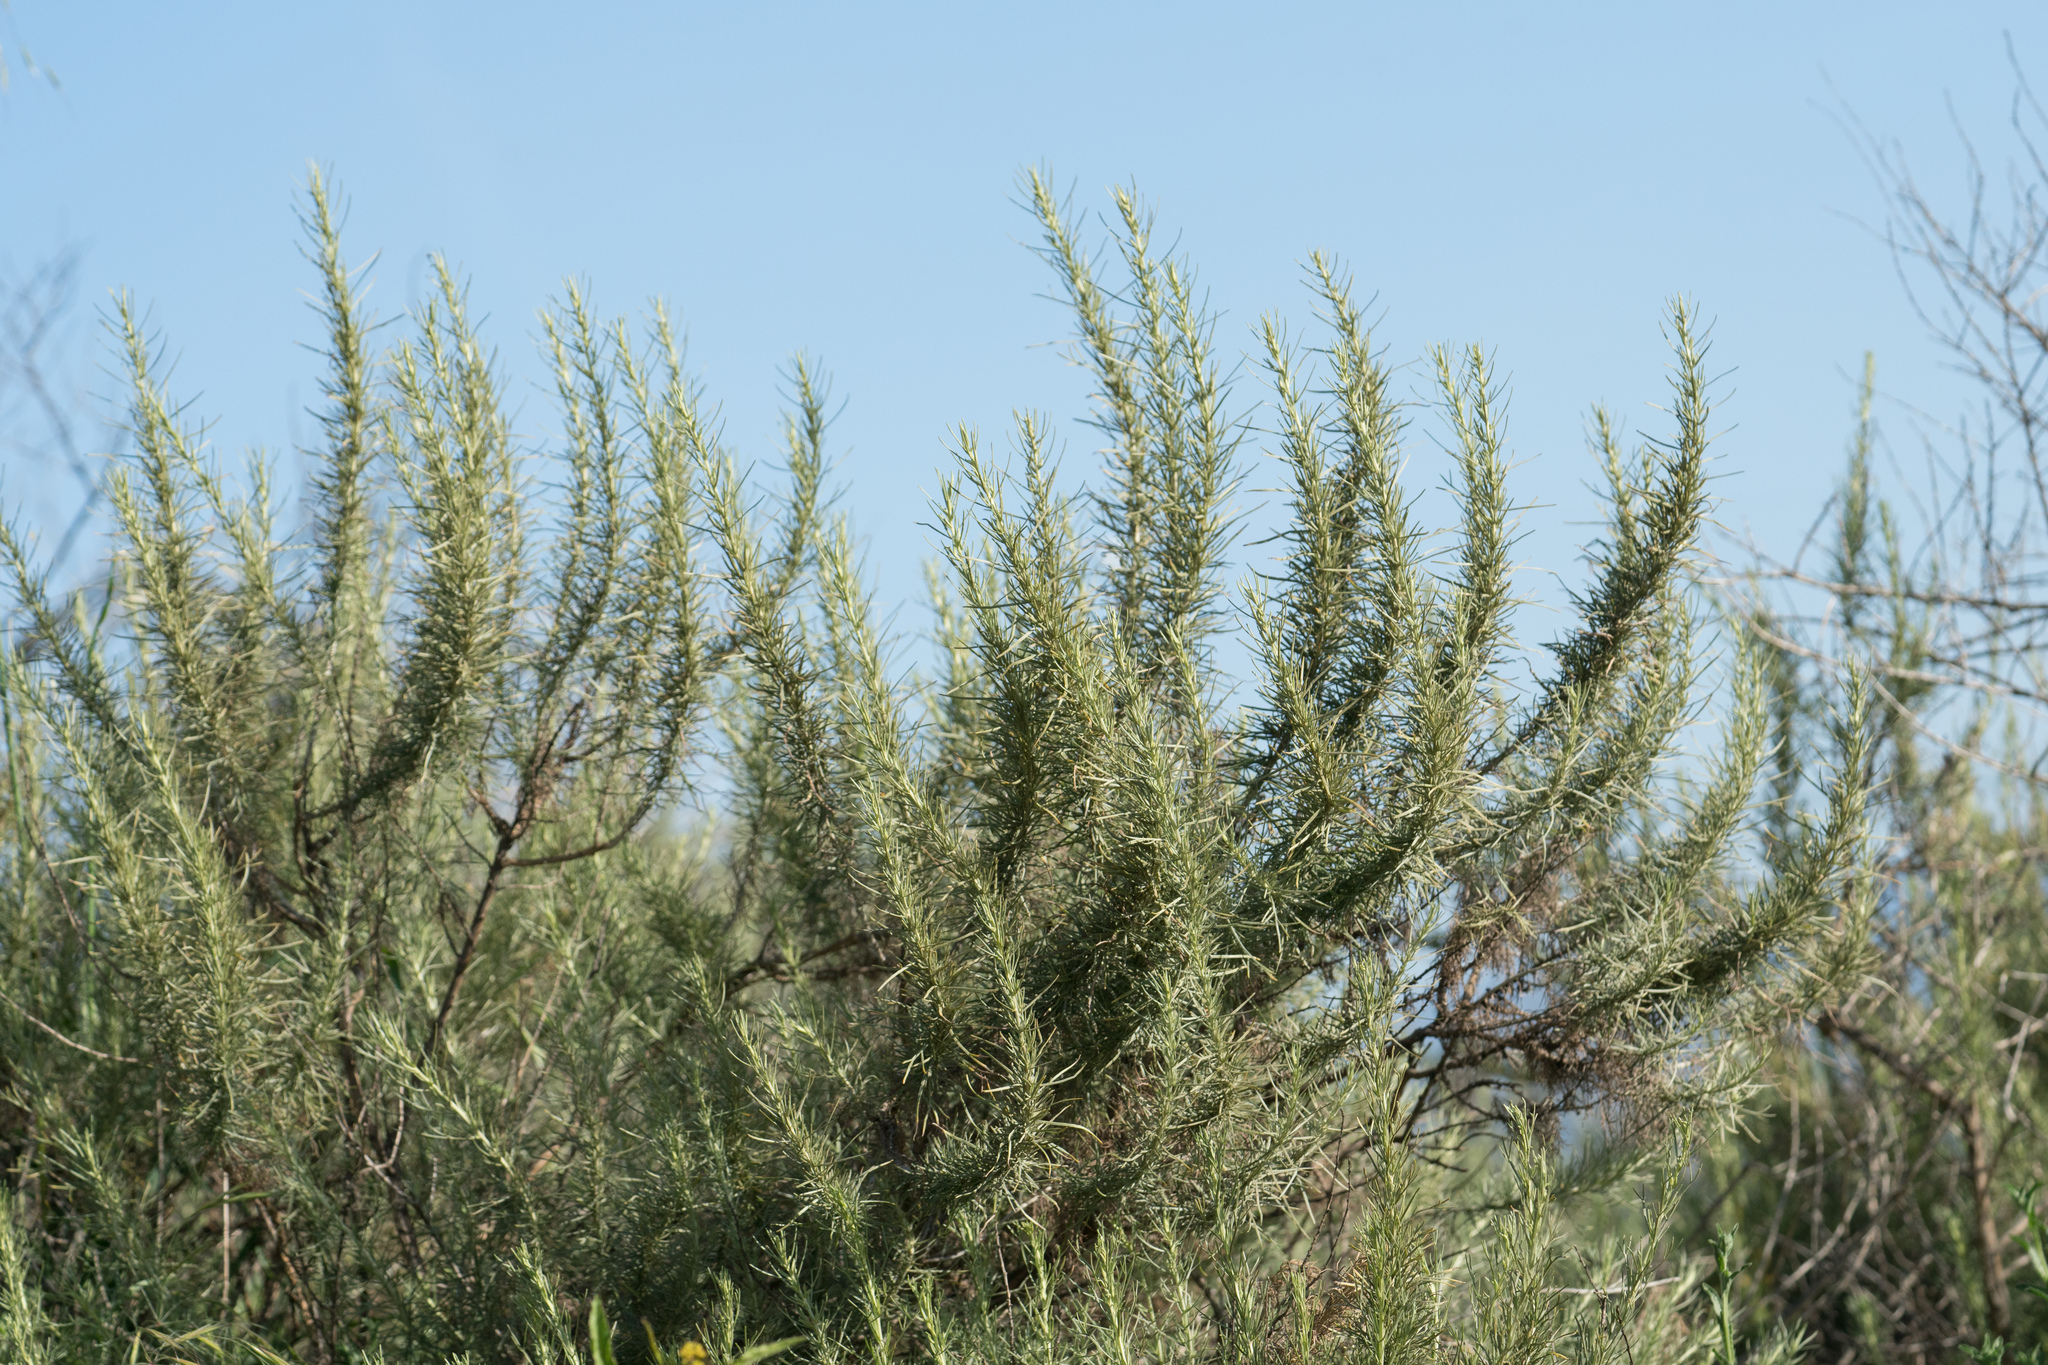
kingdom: Plantae
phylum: Tracheophyta
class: Magnoliopsida
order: Asterales
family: Asteraceae
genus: Artemisia
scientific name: Artemisia californica
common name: California sagebrush
